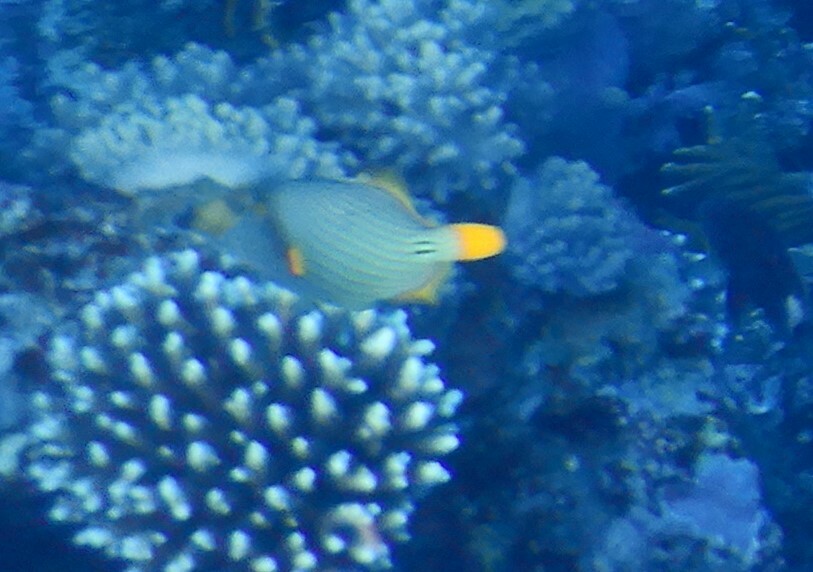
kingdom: Animalia
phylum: Chordata
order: Tetraodontiformes
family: Balistidae
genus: Balistapus
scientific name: Balistapus undulatus
